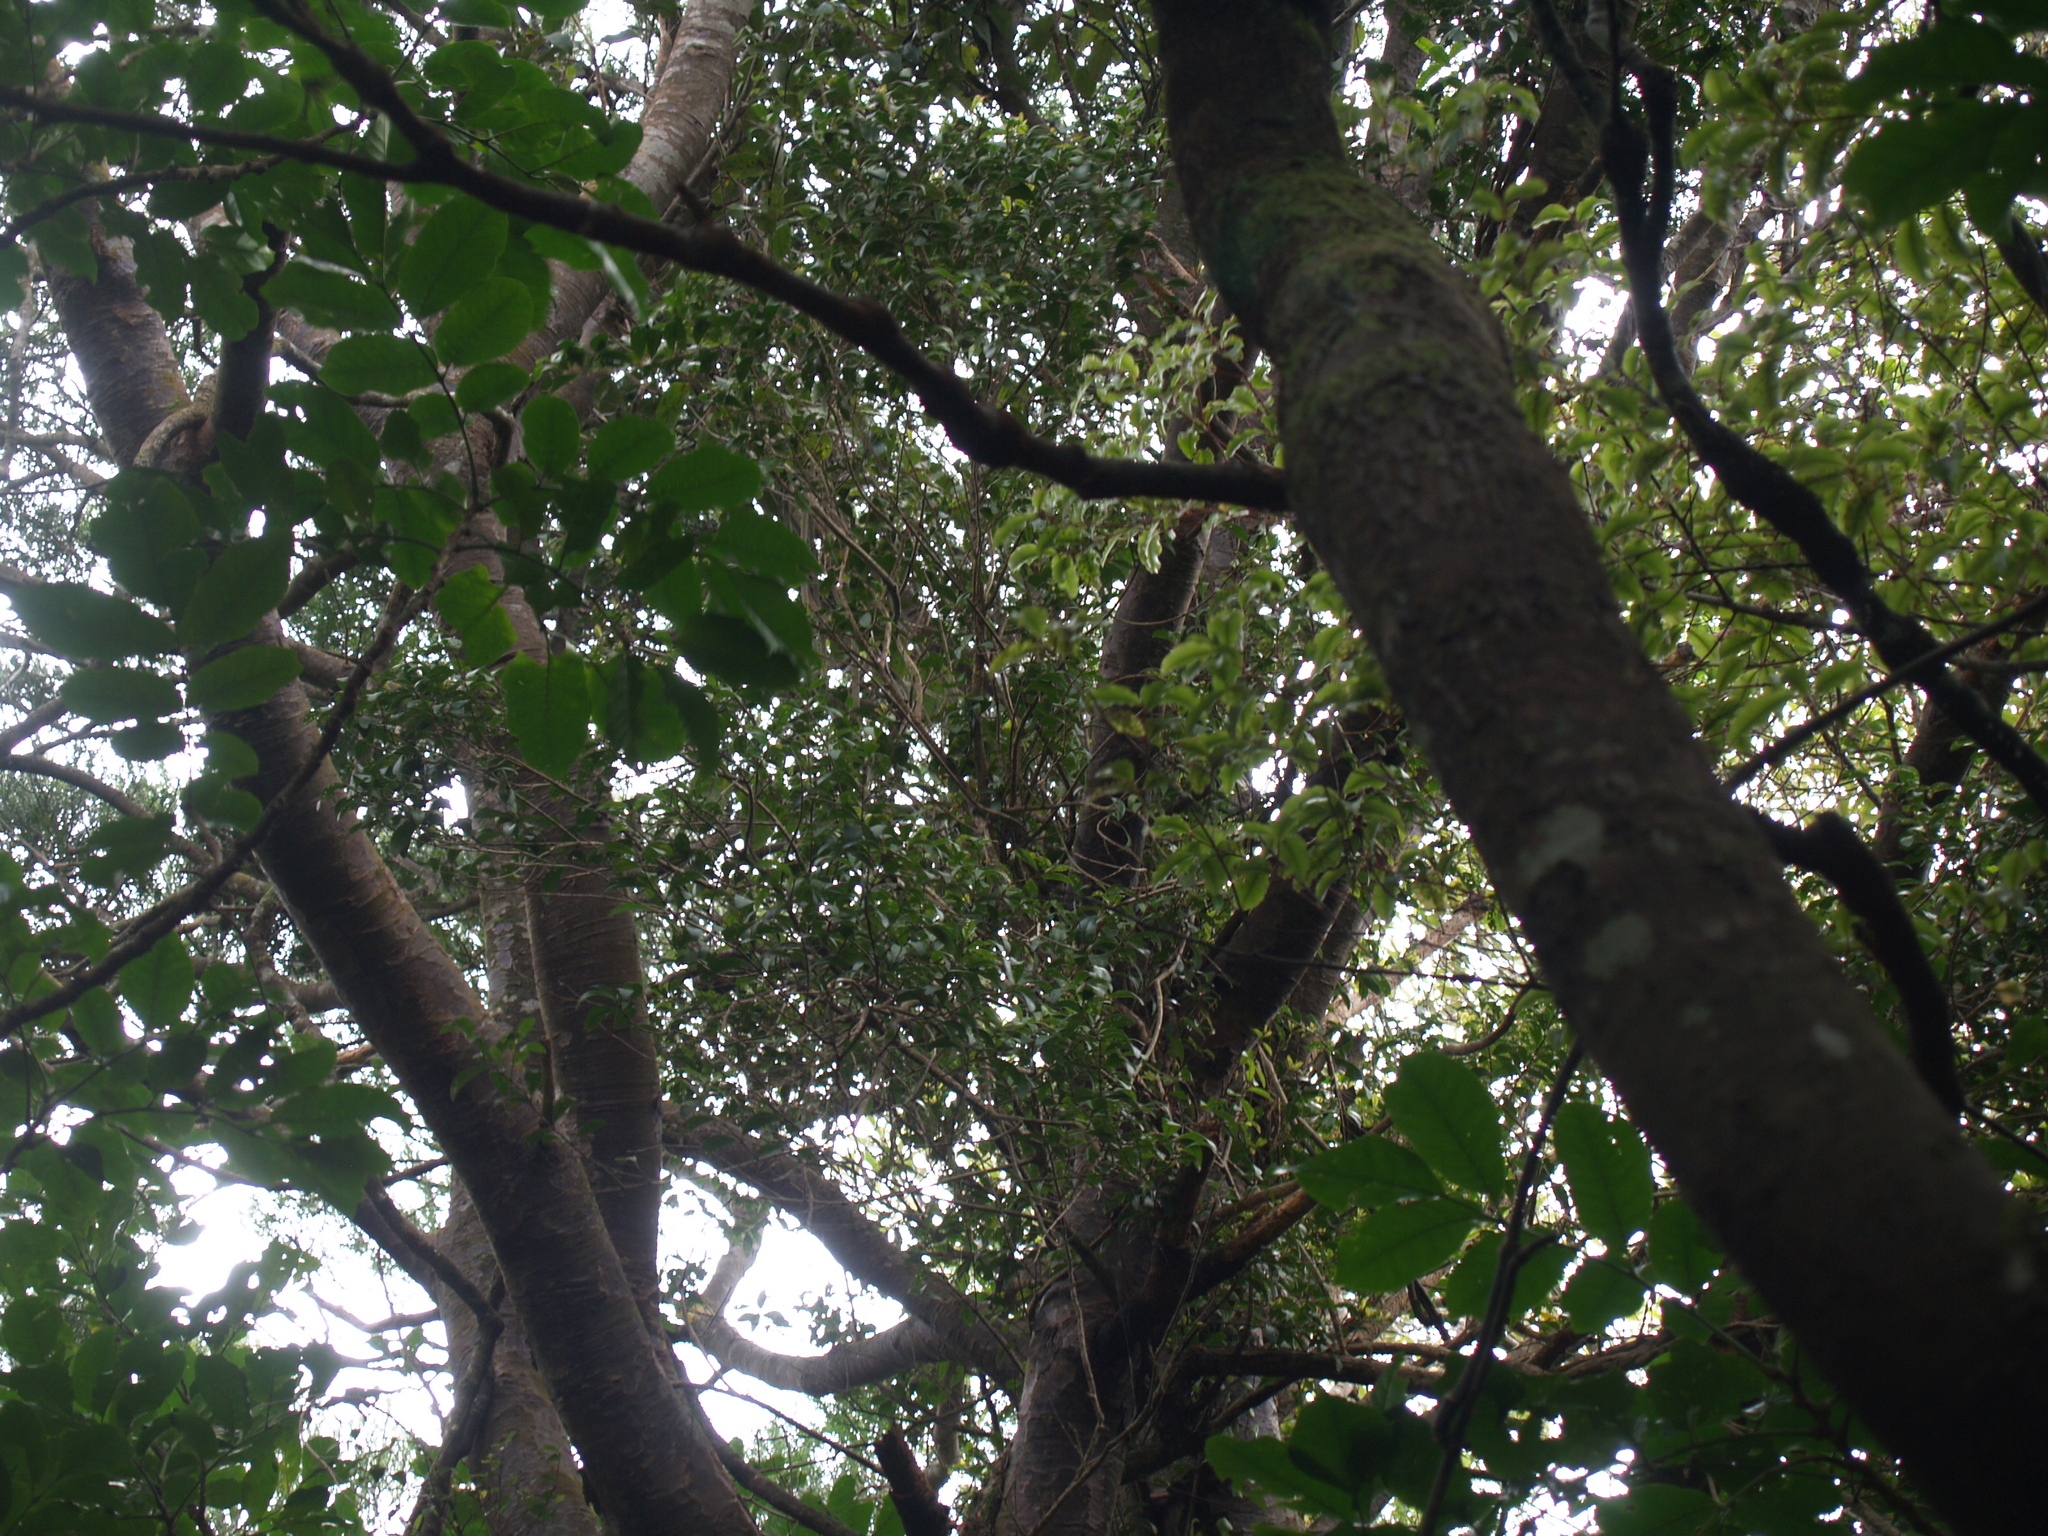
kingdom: Plantae
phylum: Tracheophyta
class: Pinopsida
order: Pinales
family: Podocarpaceae
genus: Prumnopitys
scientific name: Prumnopitys taxifolia
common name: Matai
